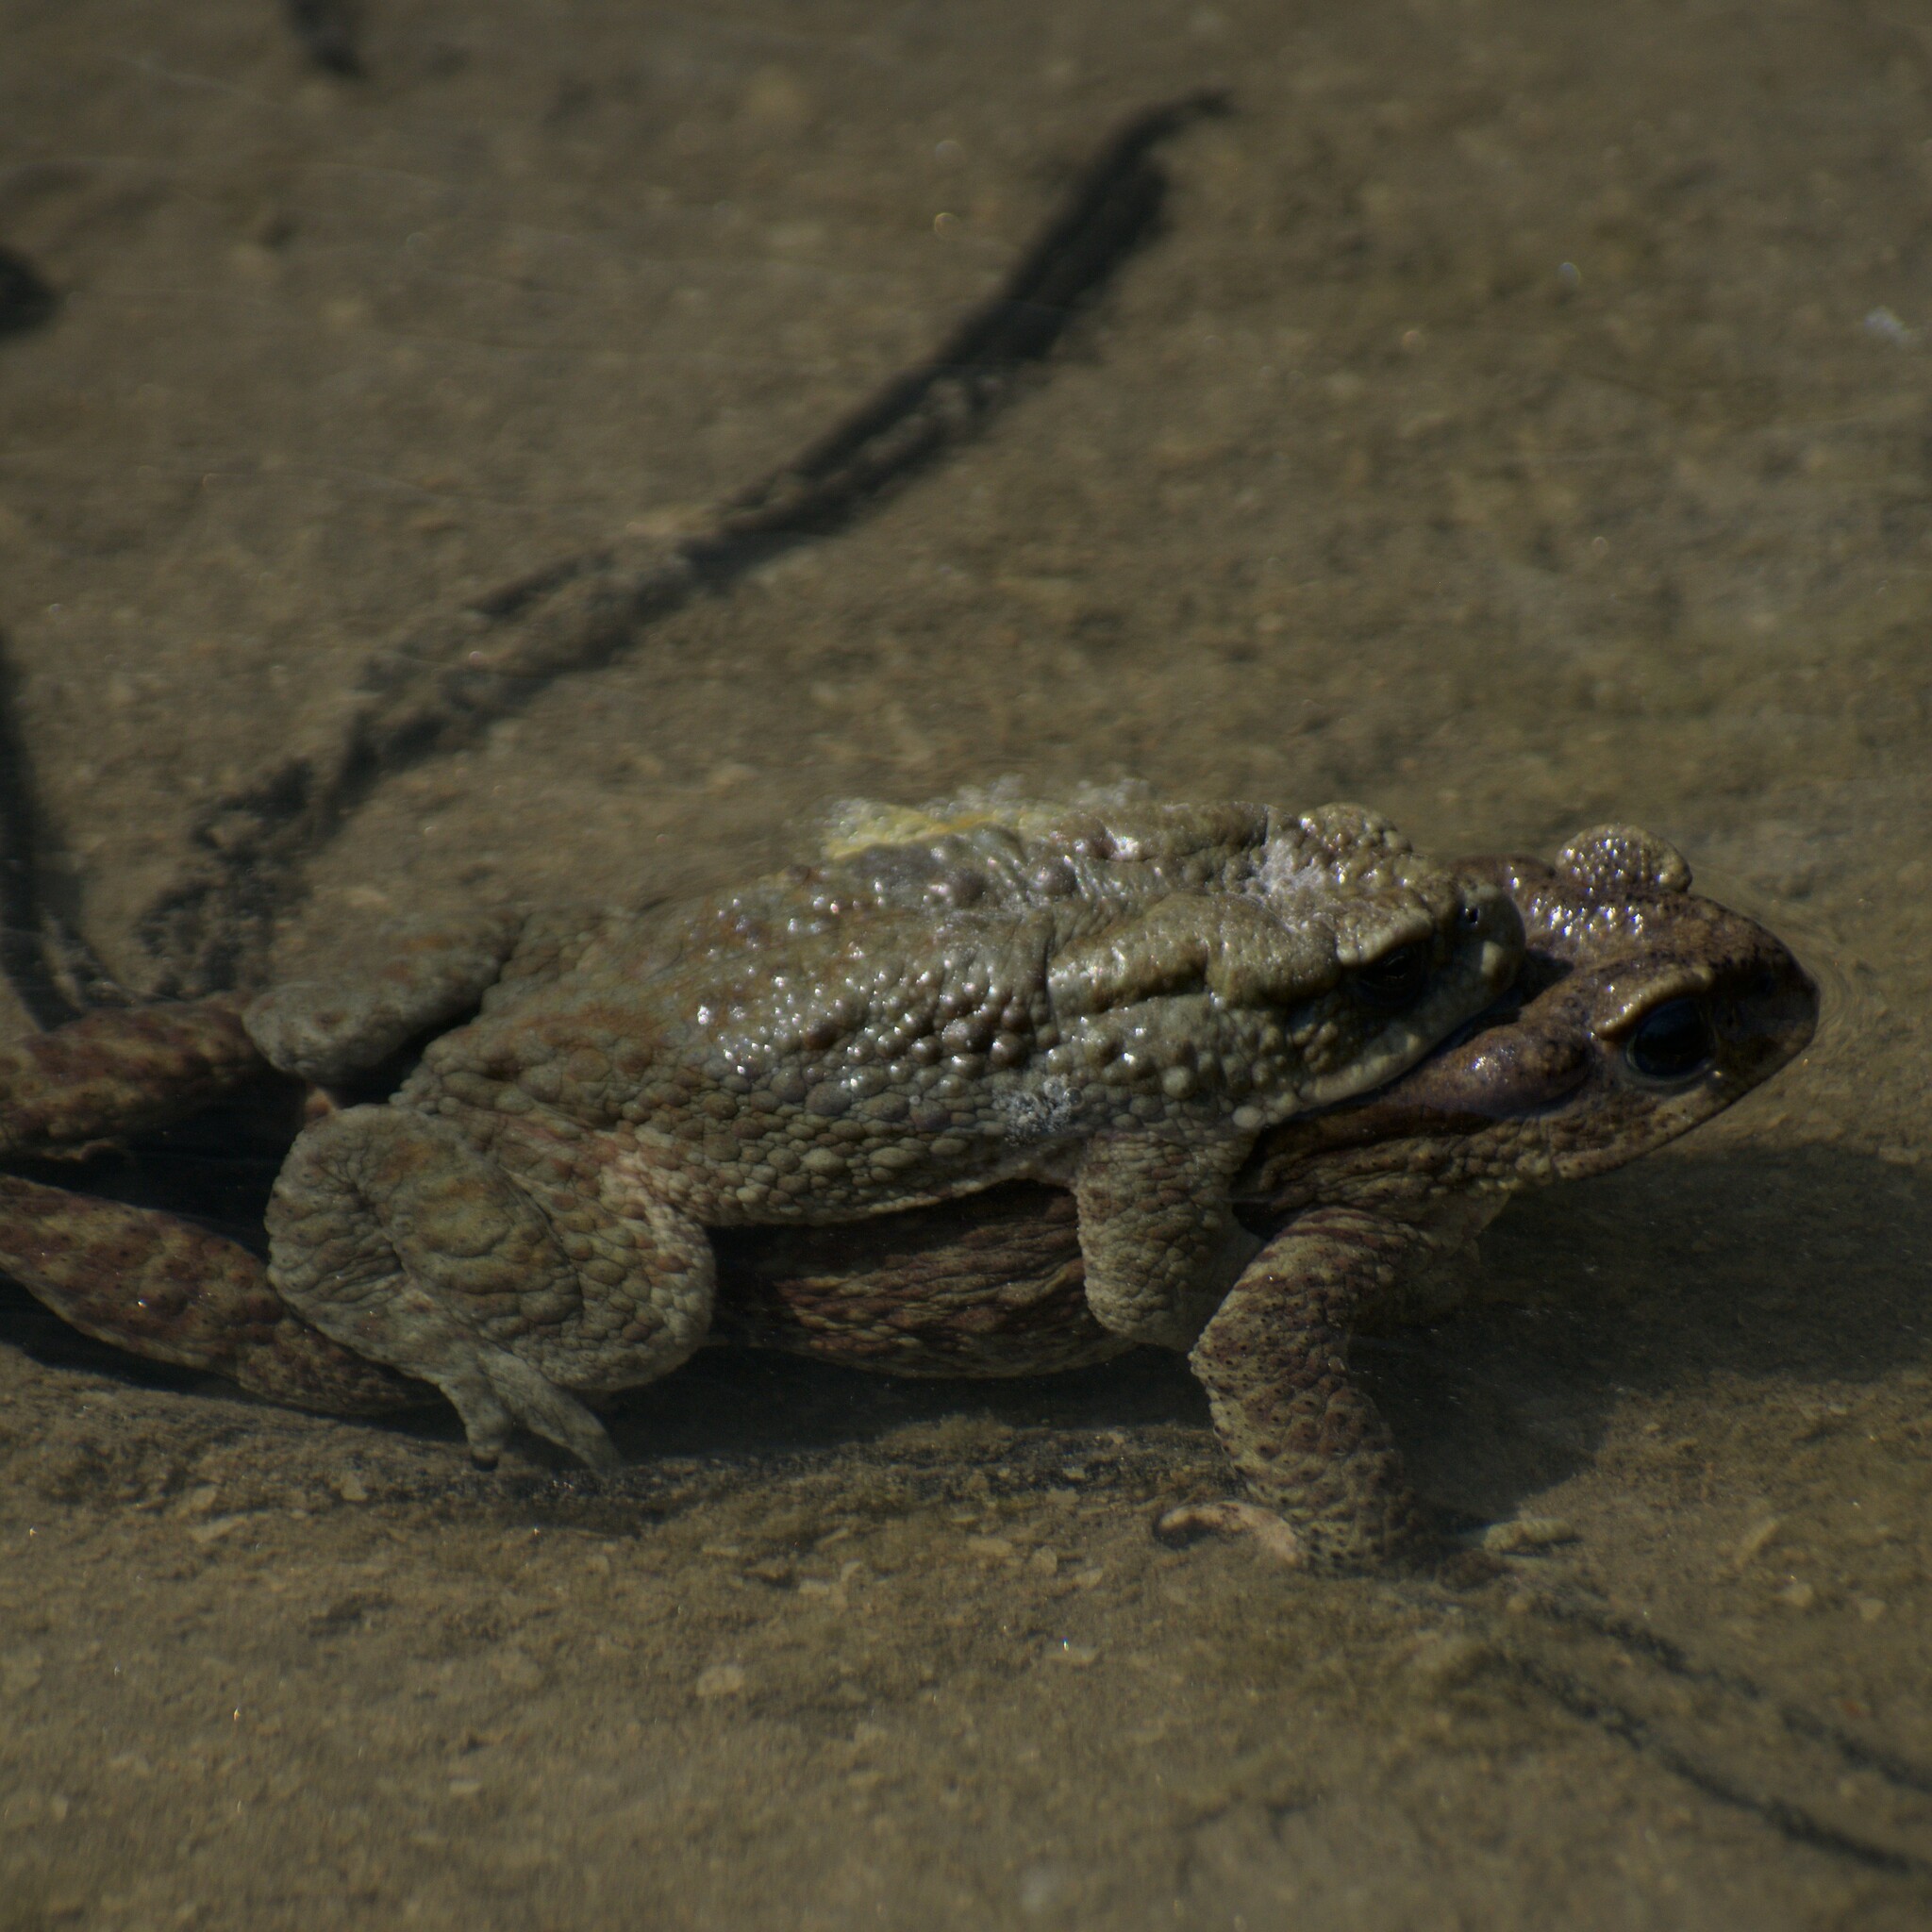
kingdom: Animalia
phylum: Chordata
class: Amphibia
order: Anura
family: Bufonidae
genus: Duttaphrynus
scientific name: Duttaphrynus himalayanus
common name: Günther's high altitude toad
